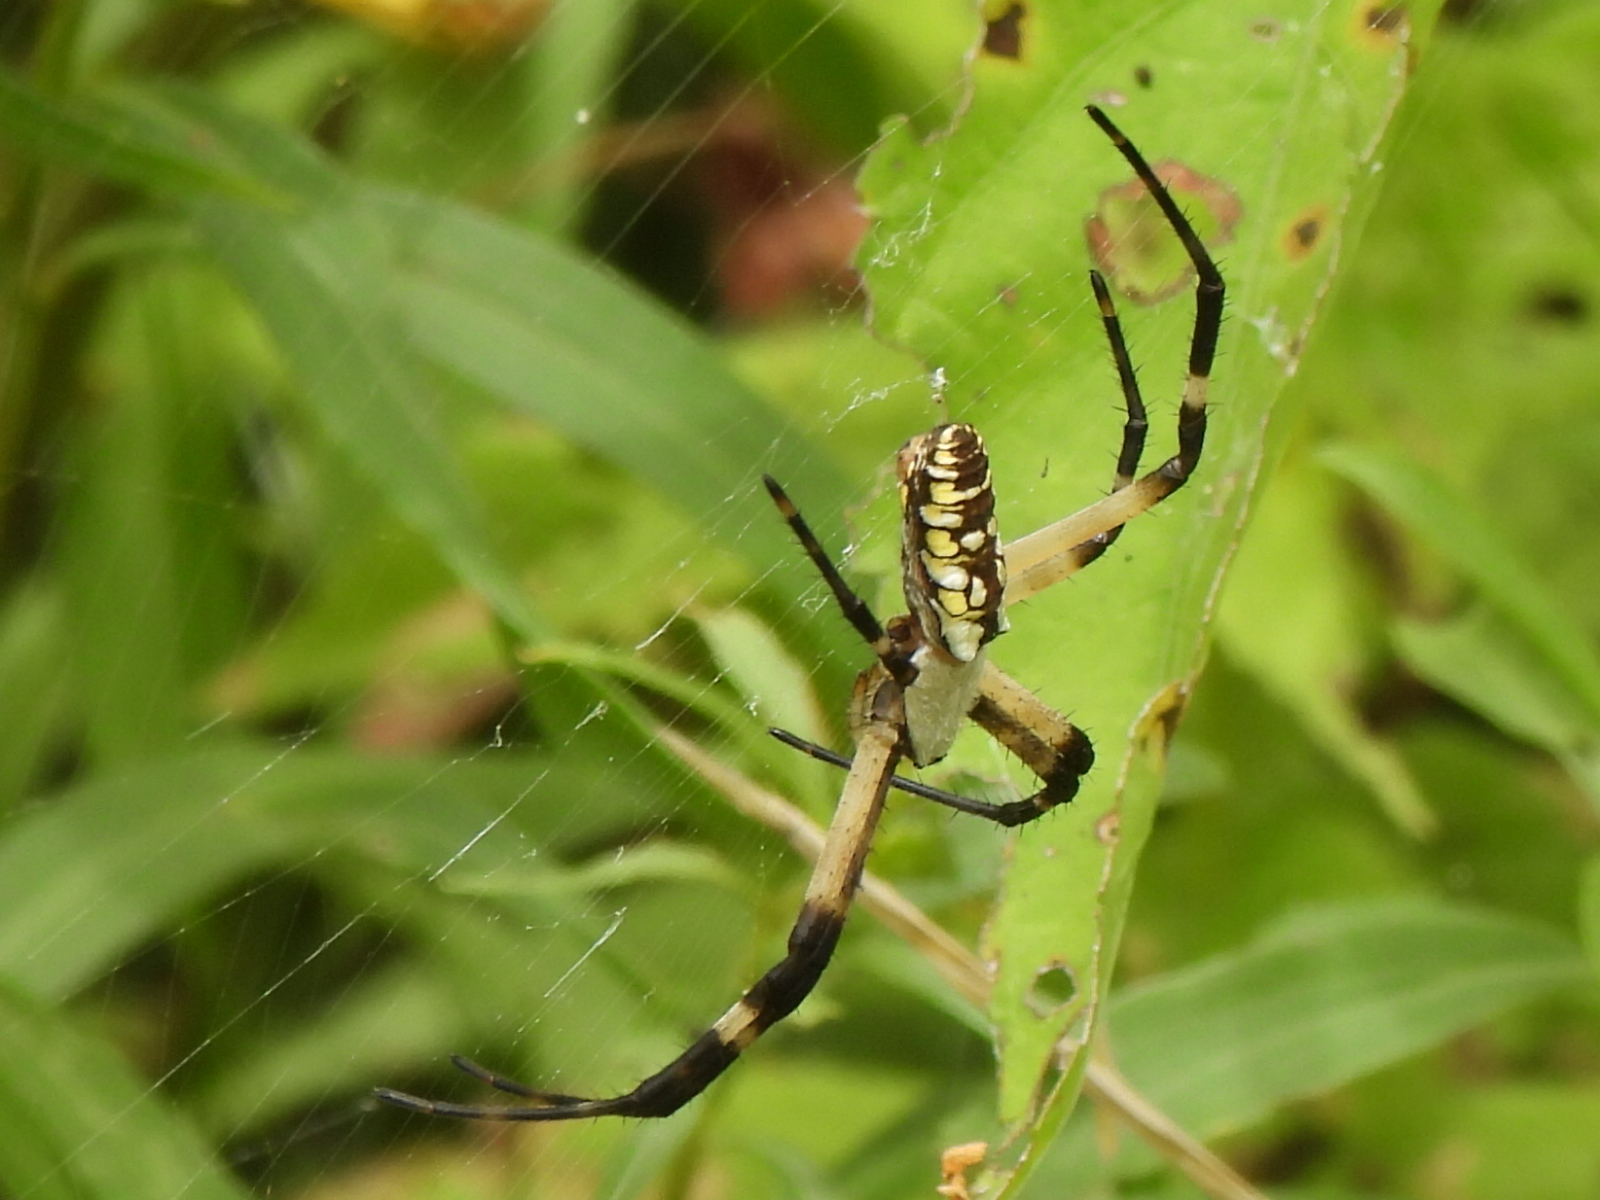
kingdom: Animalia
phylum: Arthropoda
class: Arachnida
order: Araneae
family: Araneidae
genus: Argiope
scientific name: Argiope aurantia
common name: Orb weavers
